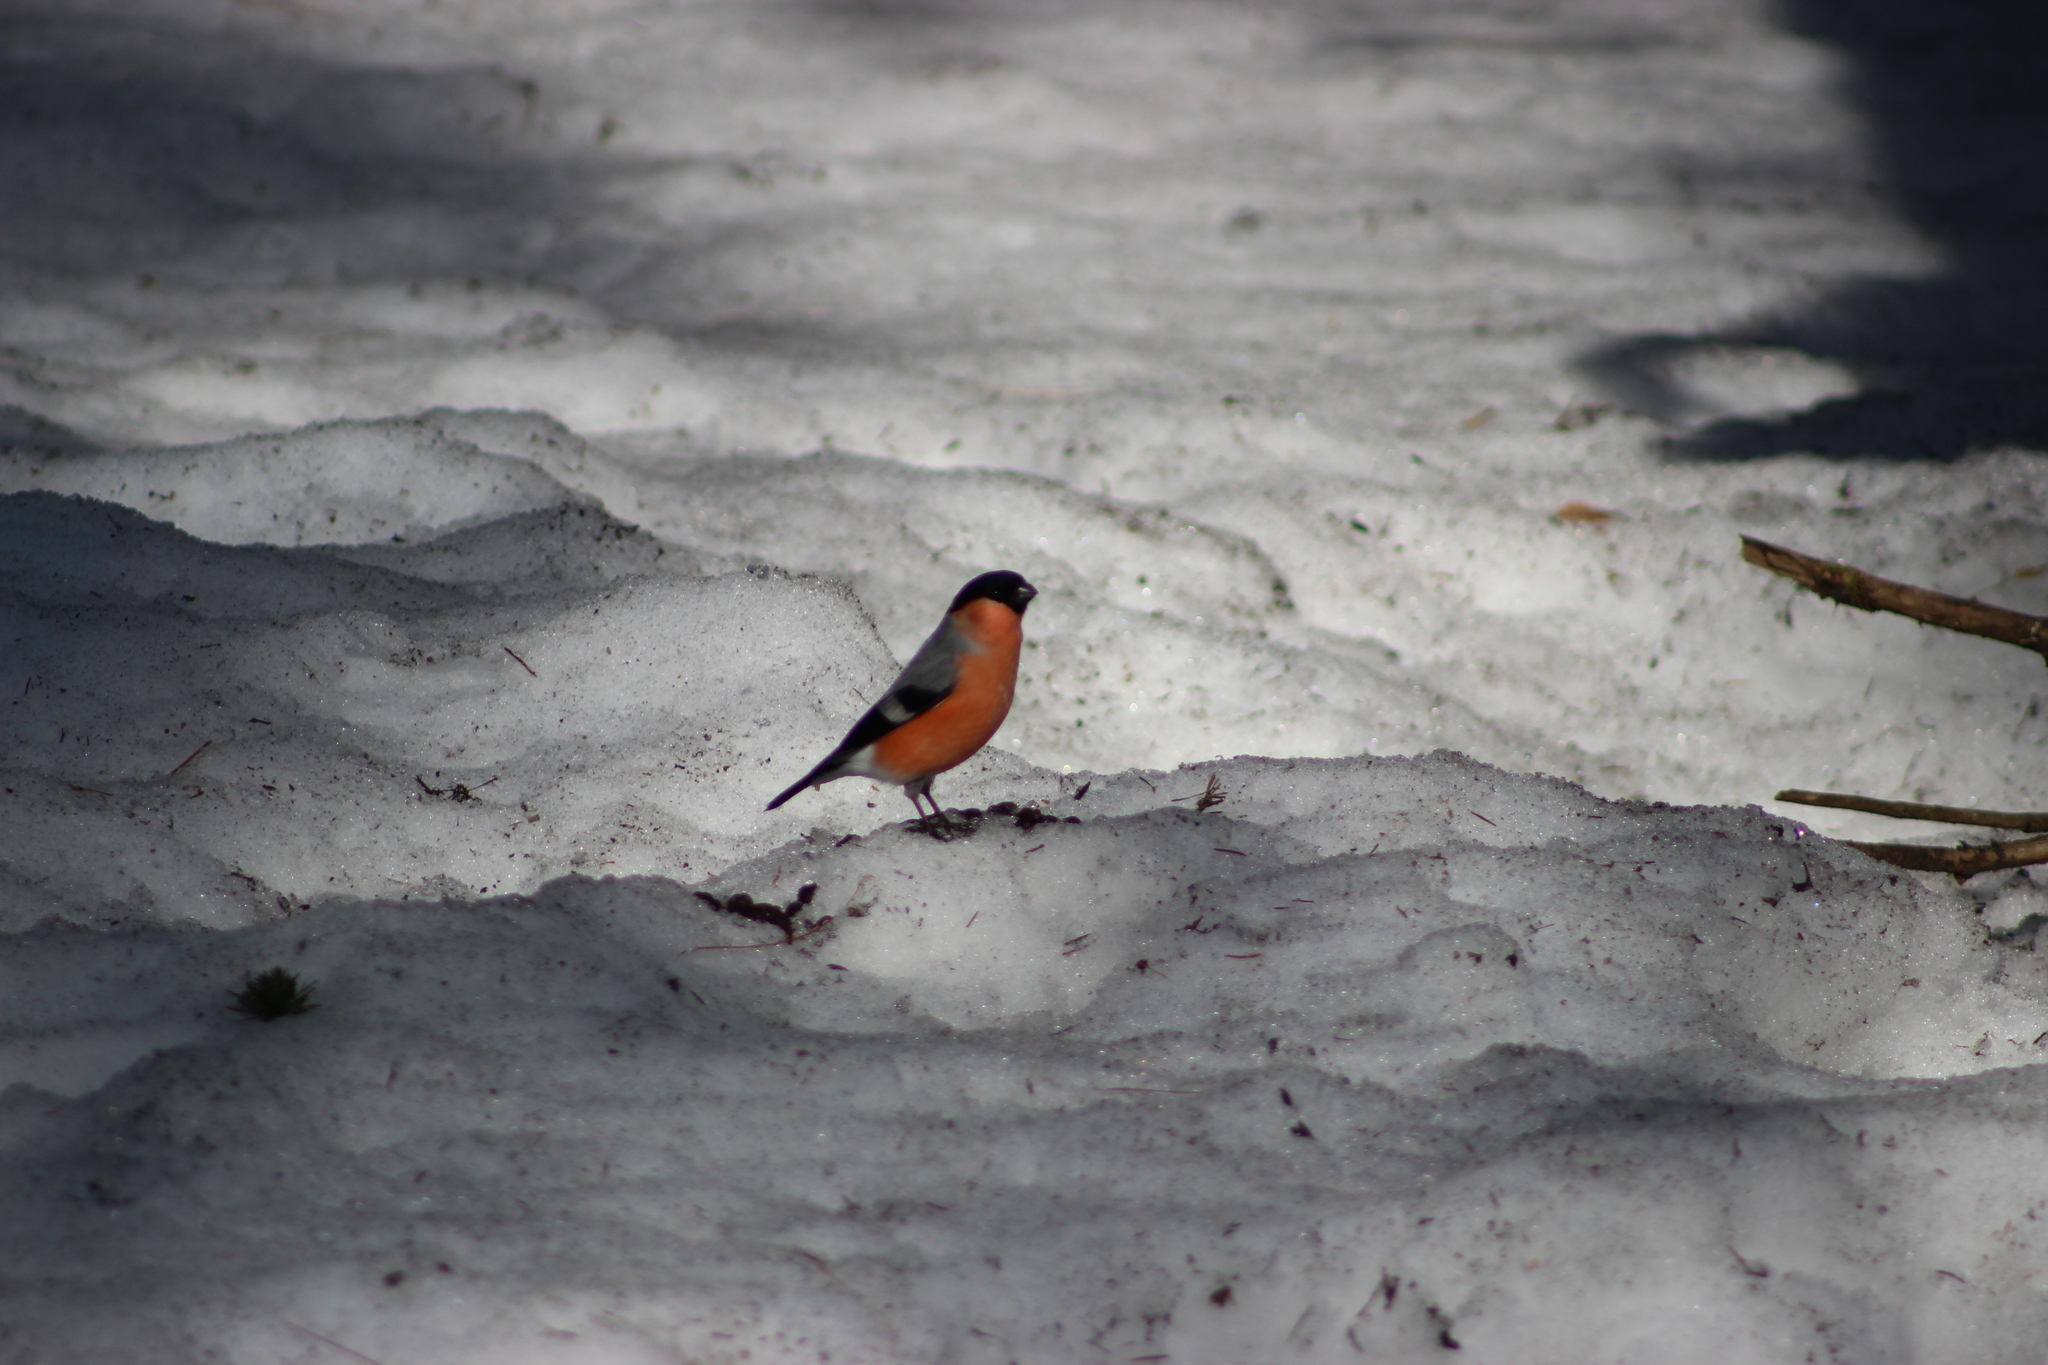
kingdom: Animalia
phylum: Chordata
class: Aves
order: Passeriformes
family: Fringillidae
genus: Pyrrhula
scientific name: Pyrrhula pyrrhula
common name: Eurasian bullfinch
